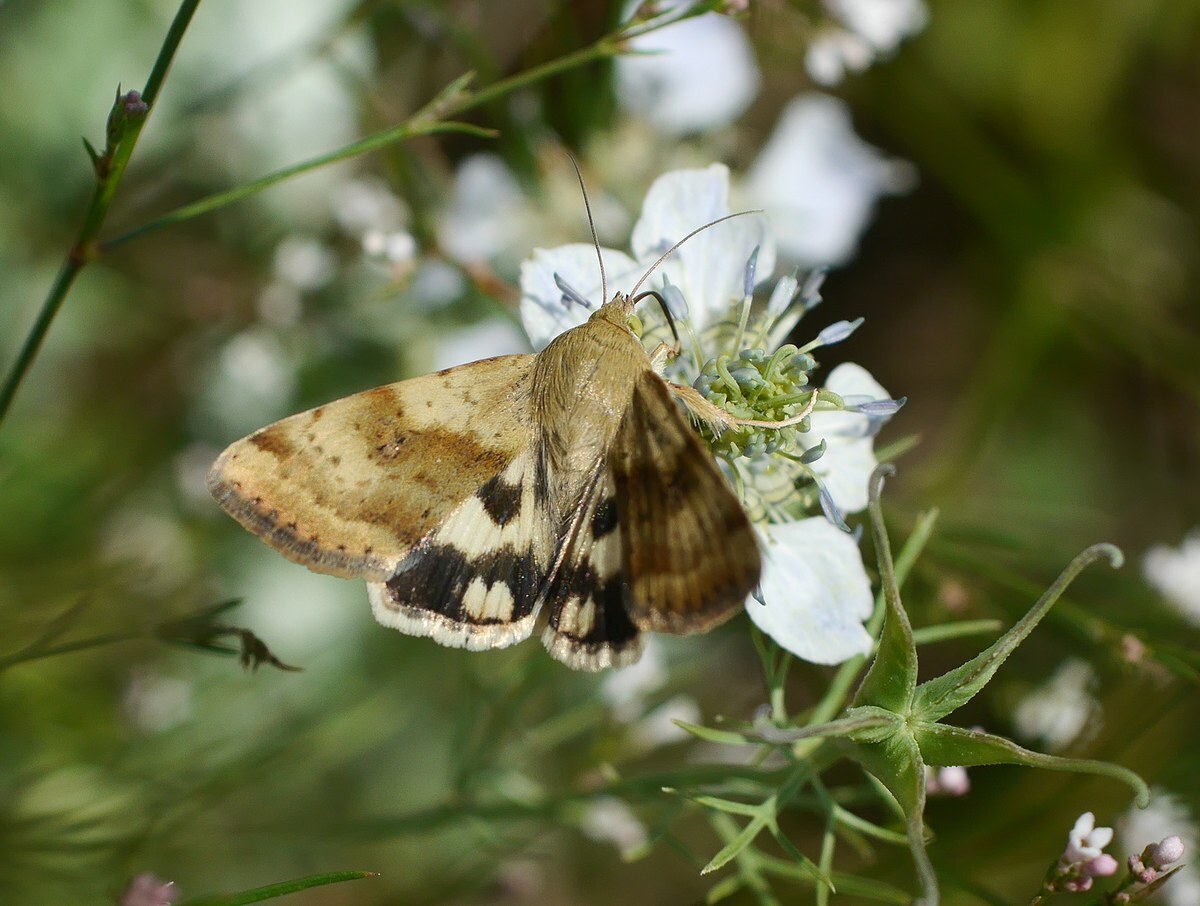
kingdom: Animalia
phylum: Arthropoda
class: Insecta
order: Lepidoptera
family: Noctuidae
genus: Heliothis
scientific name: Heliothis adaucta
